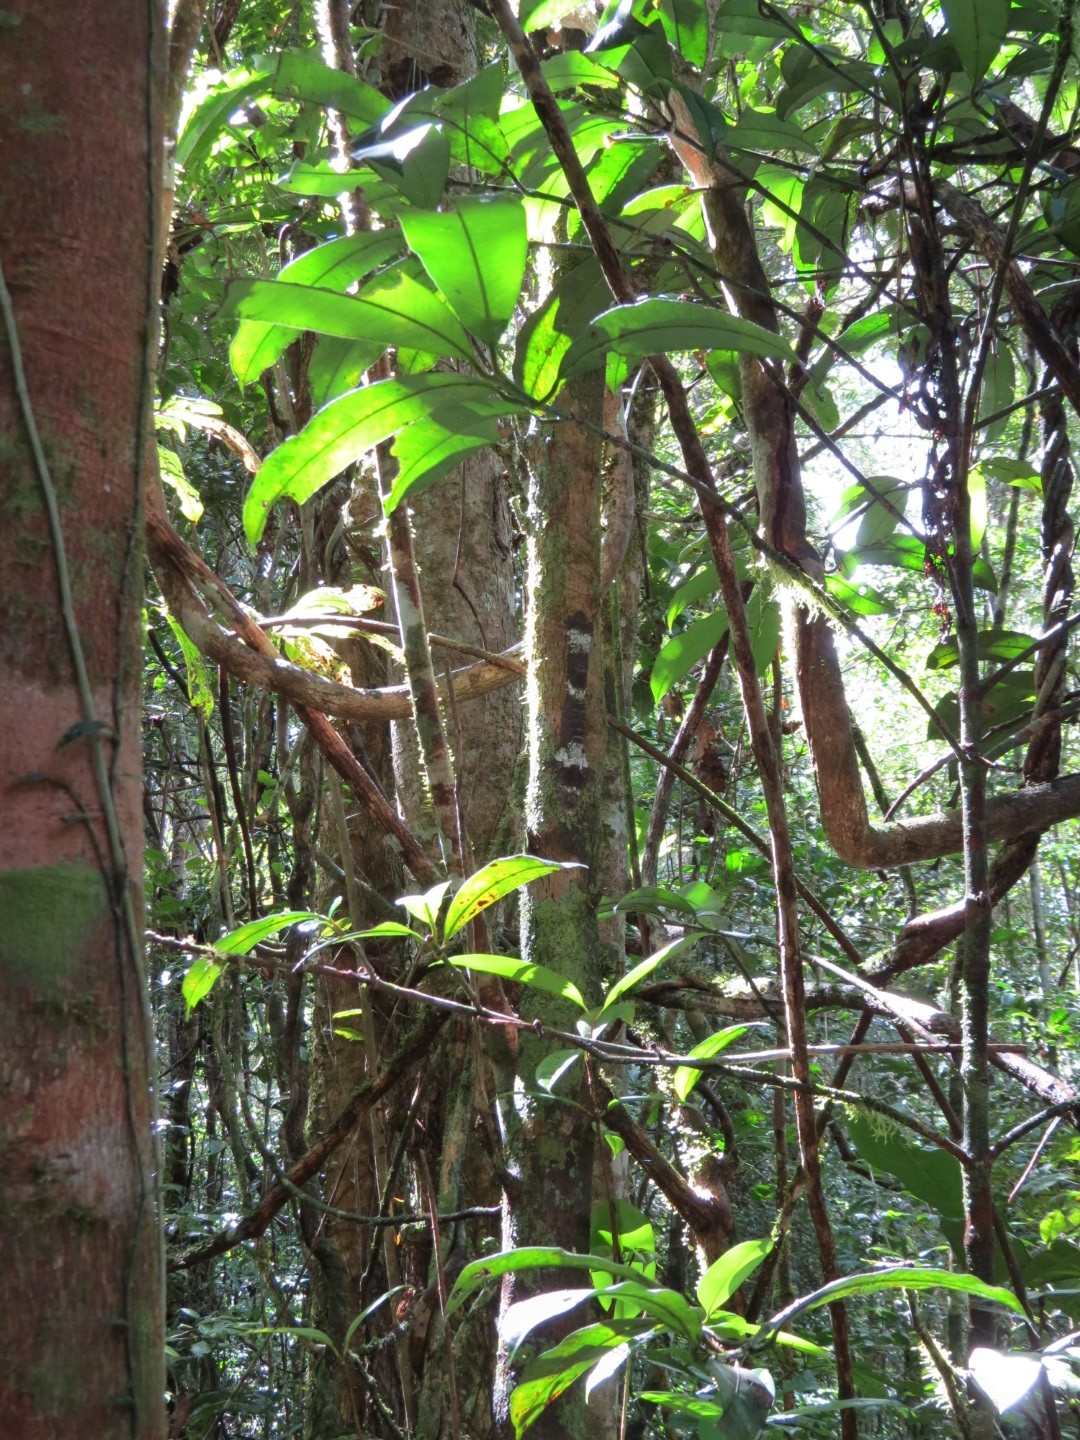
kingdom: Animalia
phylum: Chordata
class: Squamata
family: Gekkonidae
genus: Uroplatus
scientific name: Uroplatus giganteus
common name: Giant leaf-tail gecko
